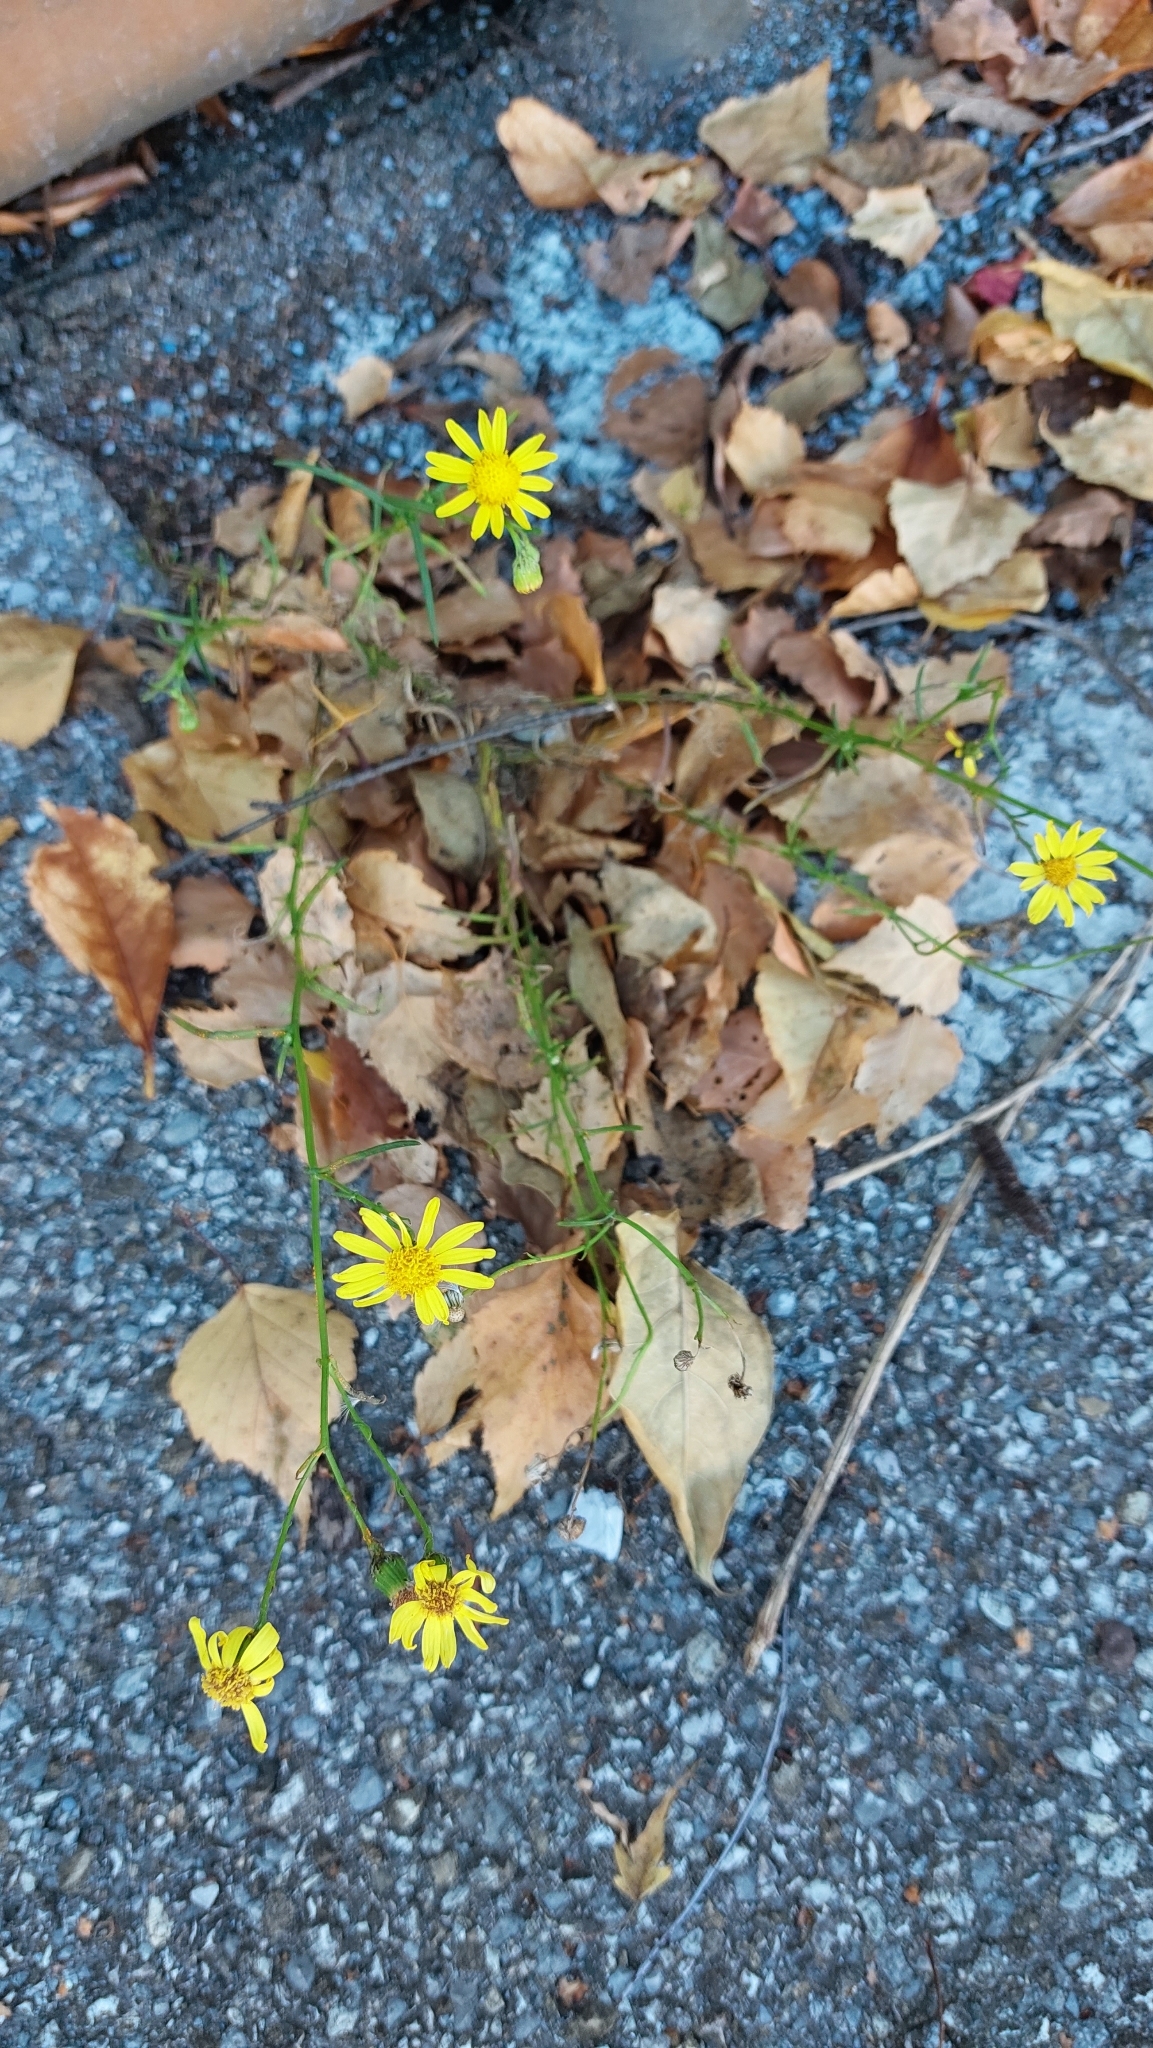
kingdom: Plantae
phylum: Tracheophyta
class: Magnoliopsida
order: Asterales
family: Asteraceae
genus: Senecio
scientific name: Senecio inaequidens
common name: Narrow-leaved ragwort
